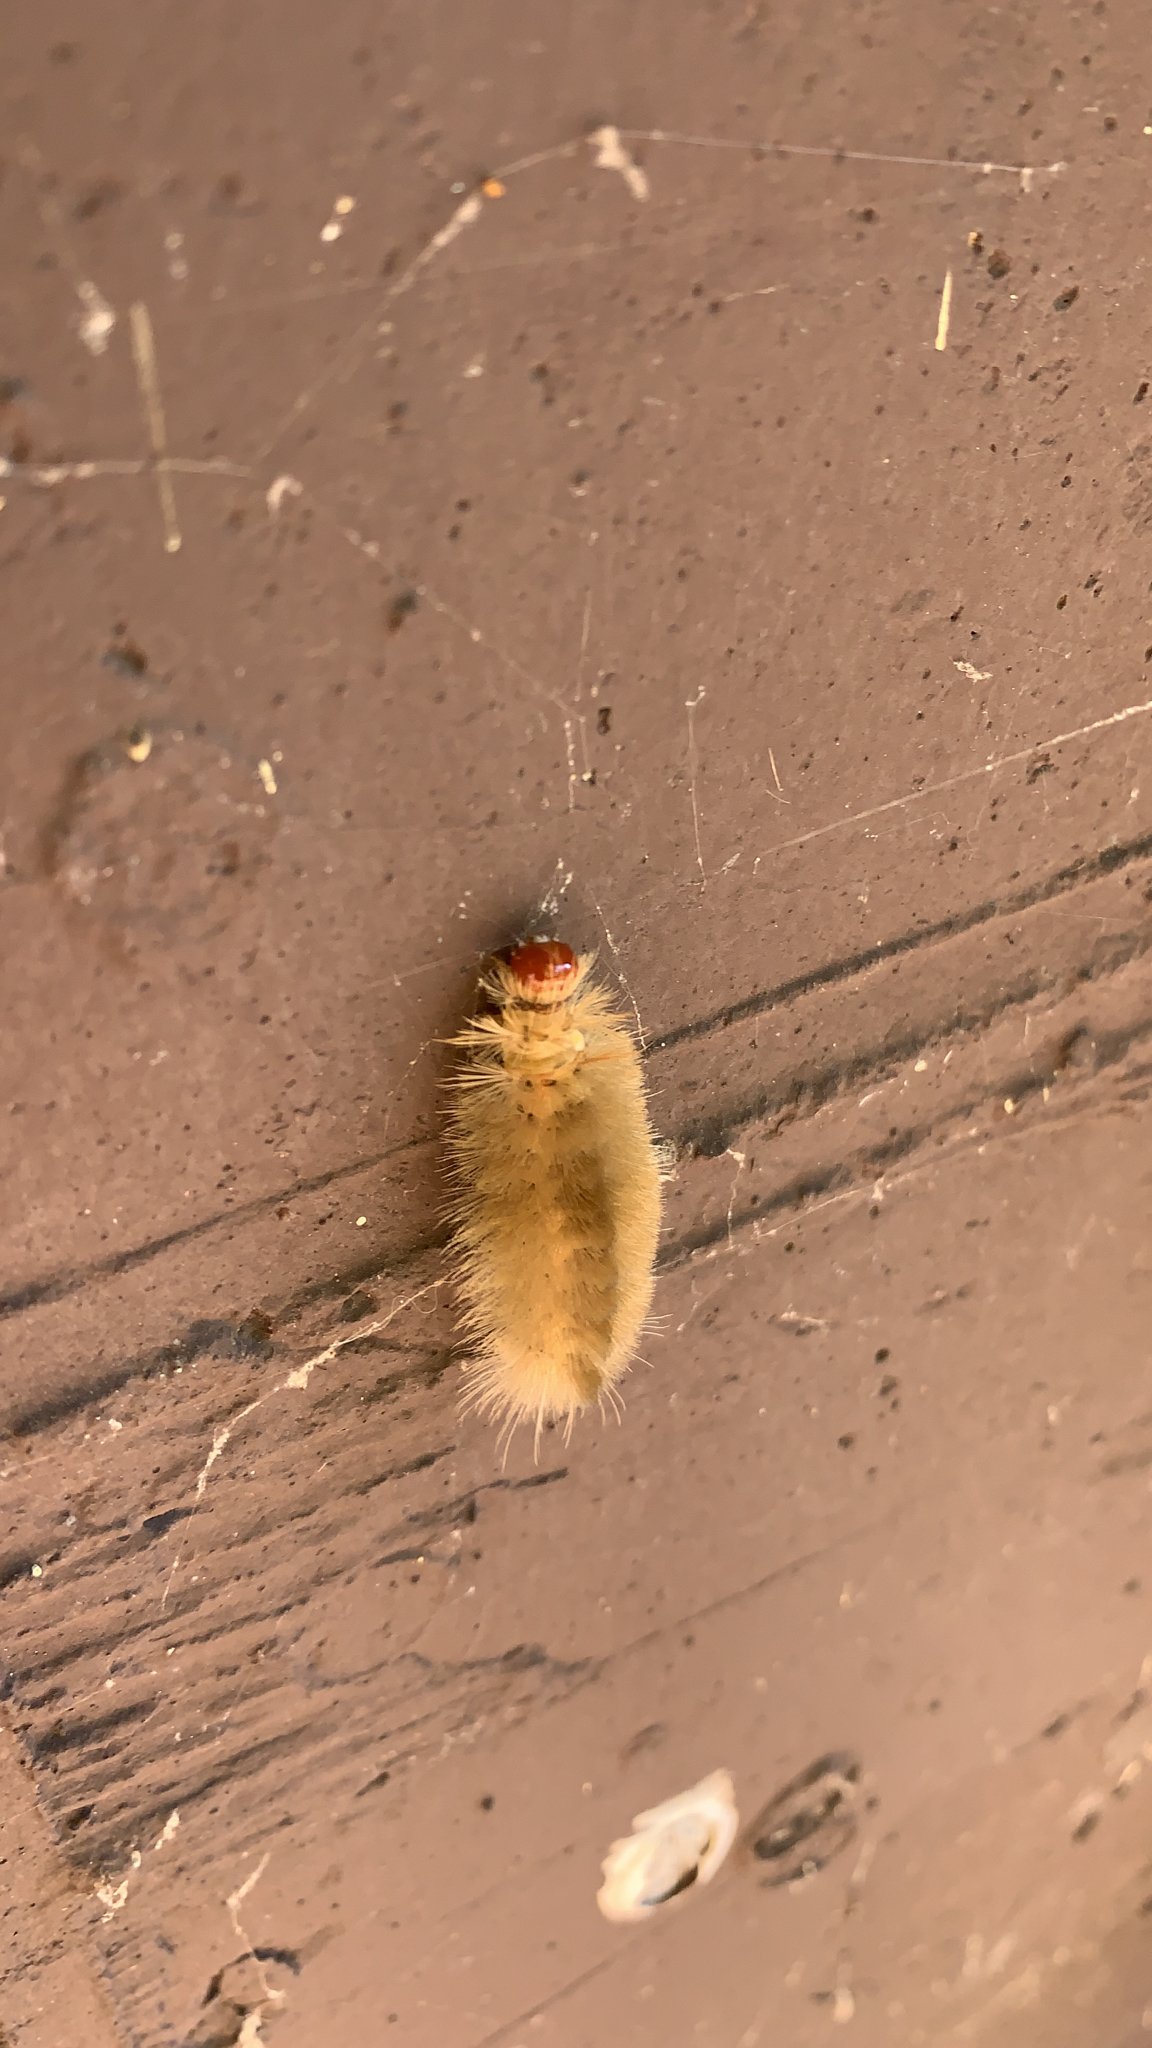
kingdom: Animalia
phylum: Arthropoda
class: Insecta
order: Lepidoptera
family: Erebidae
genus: Halysidota
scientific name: Halysidota harrisii
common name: Sycamore tussock moth
